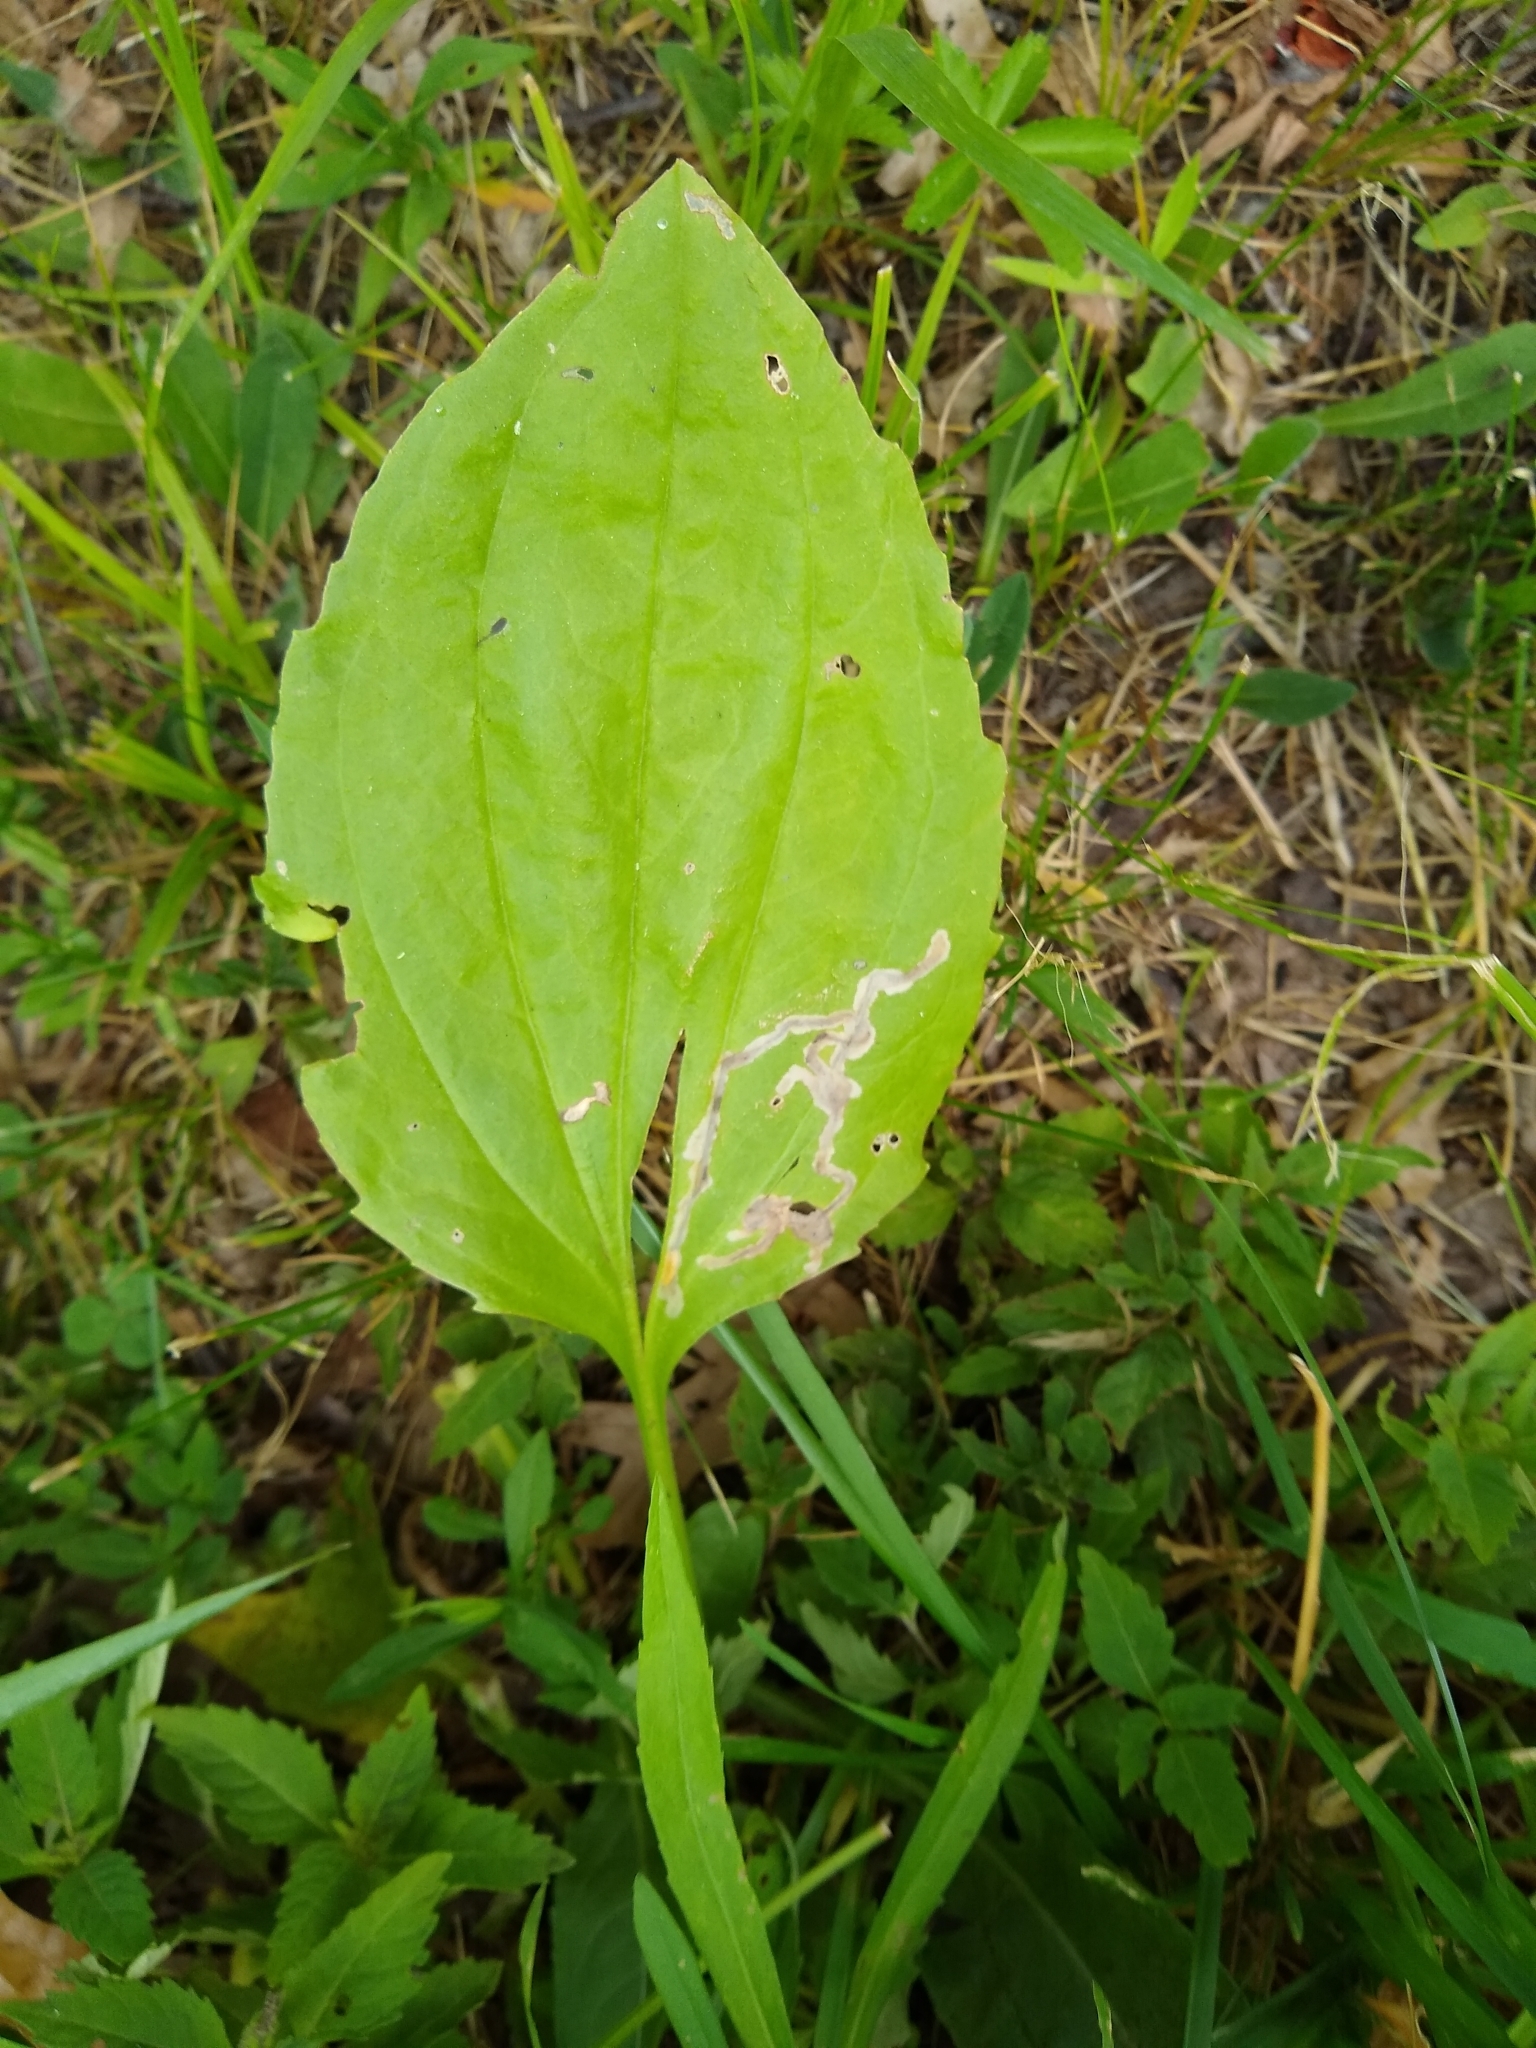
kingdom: Animalia
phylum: Arthropoda
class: Insecta
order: Coleoptera
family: Chrysomelidae
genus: Dibolia
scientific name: Dibolia borealis
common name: Northern plantain flea beetle
